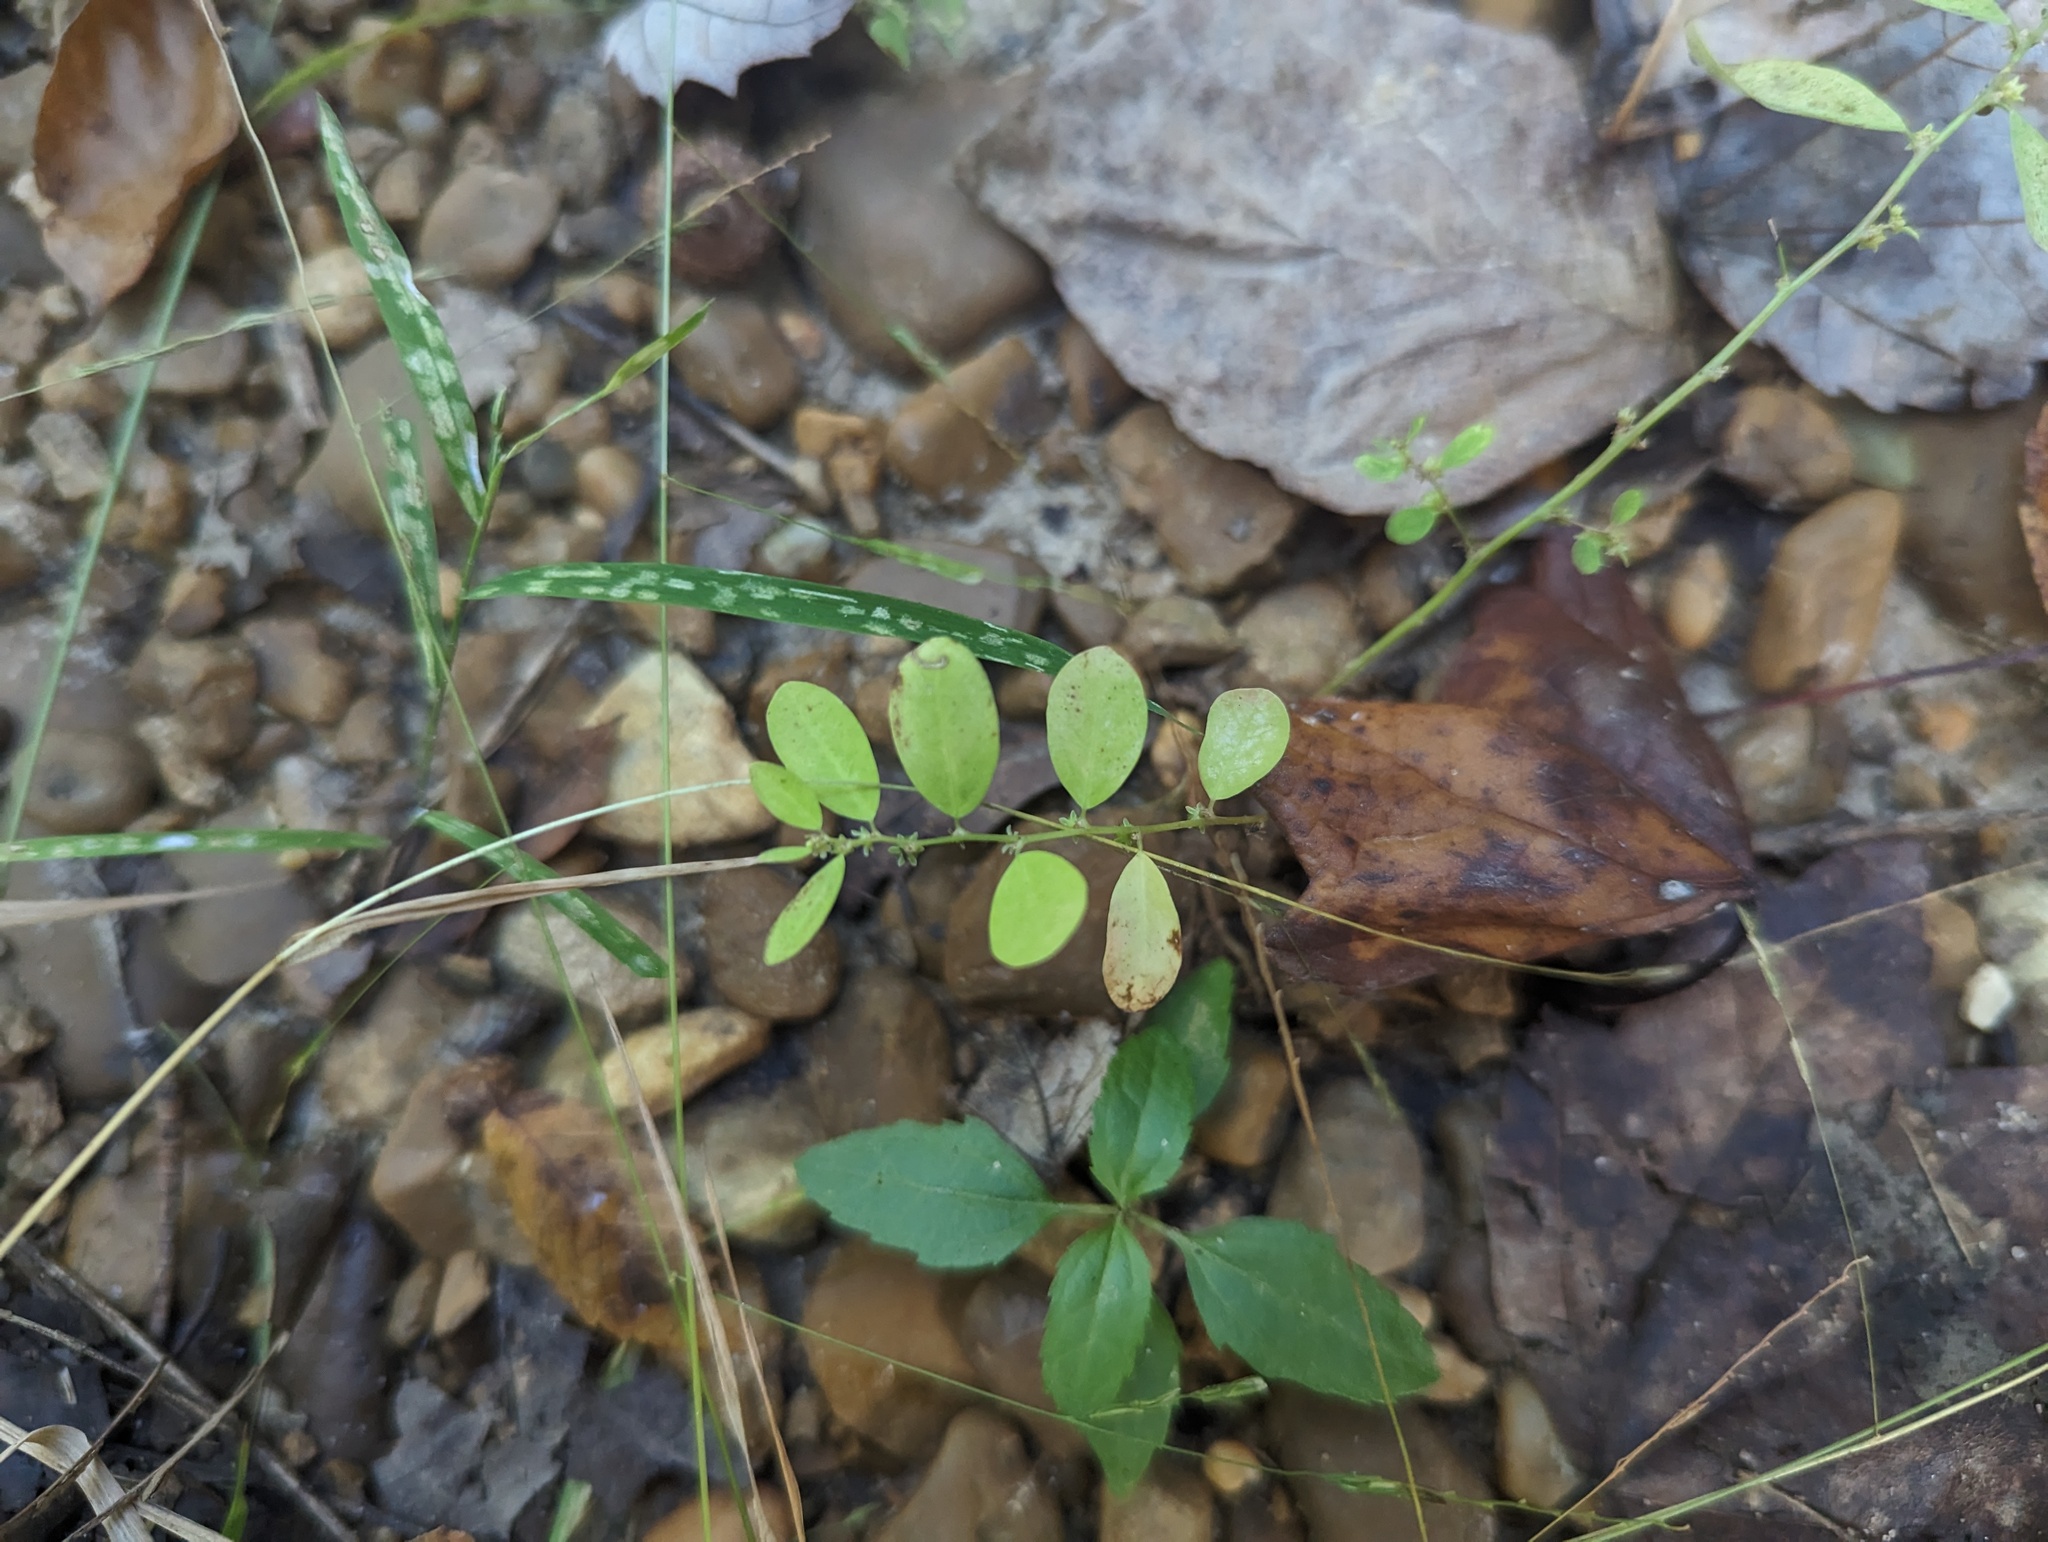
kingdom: Plantae
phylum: Tracheophyta
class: Magnoliopsida
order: Malpighiales
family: Phyllanthaceae
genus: Phyllanthus
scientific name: Phyllanthus caroliniensis
